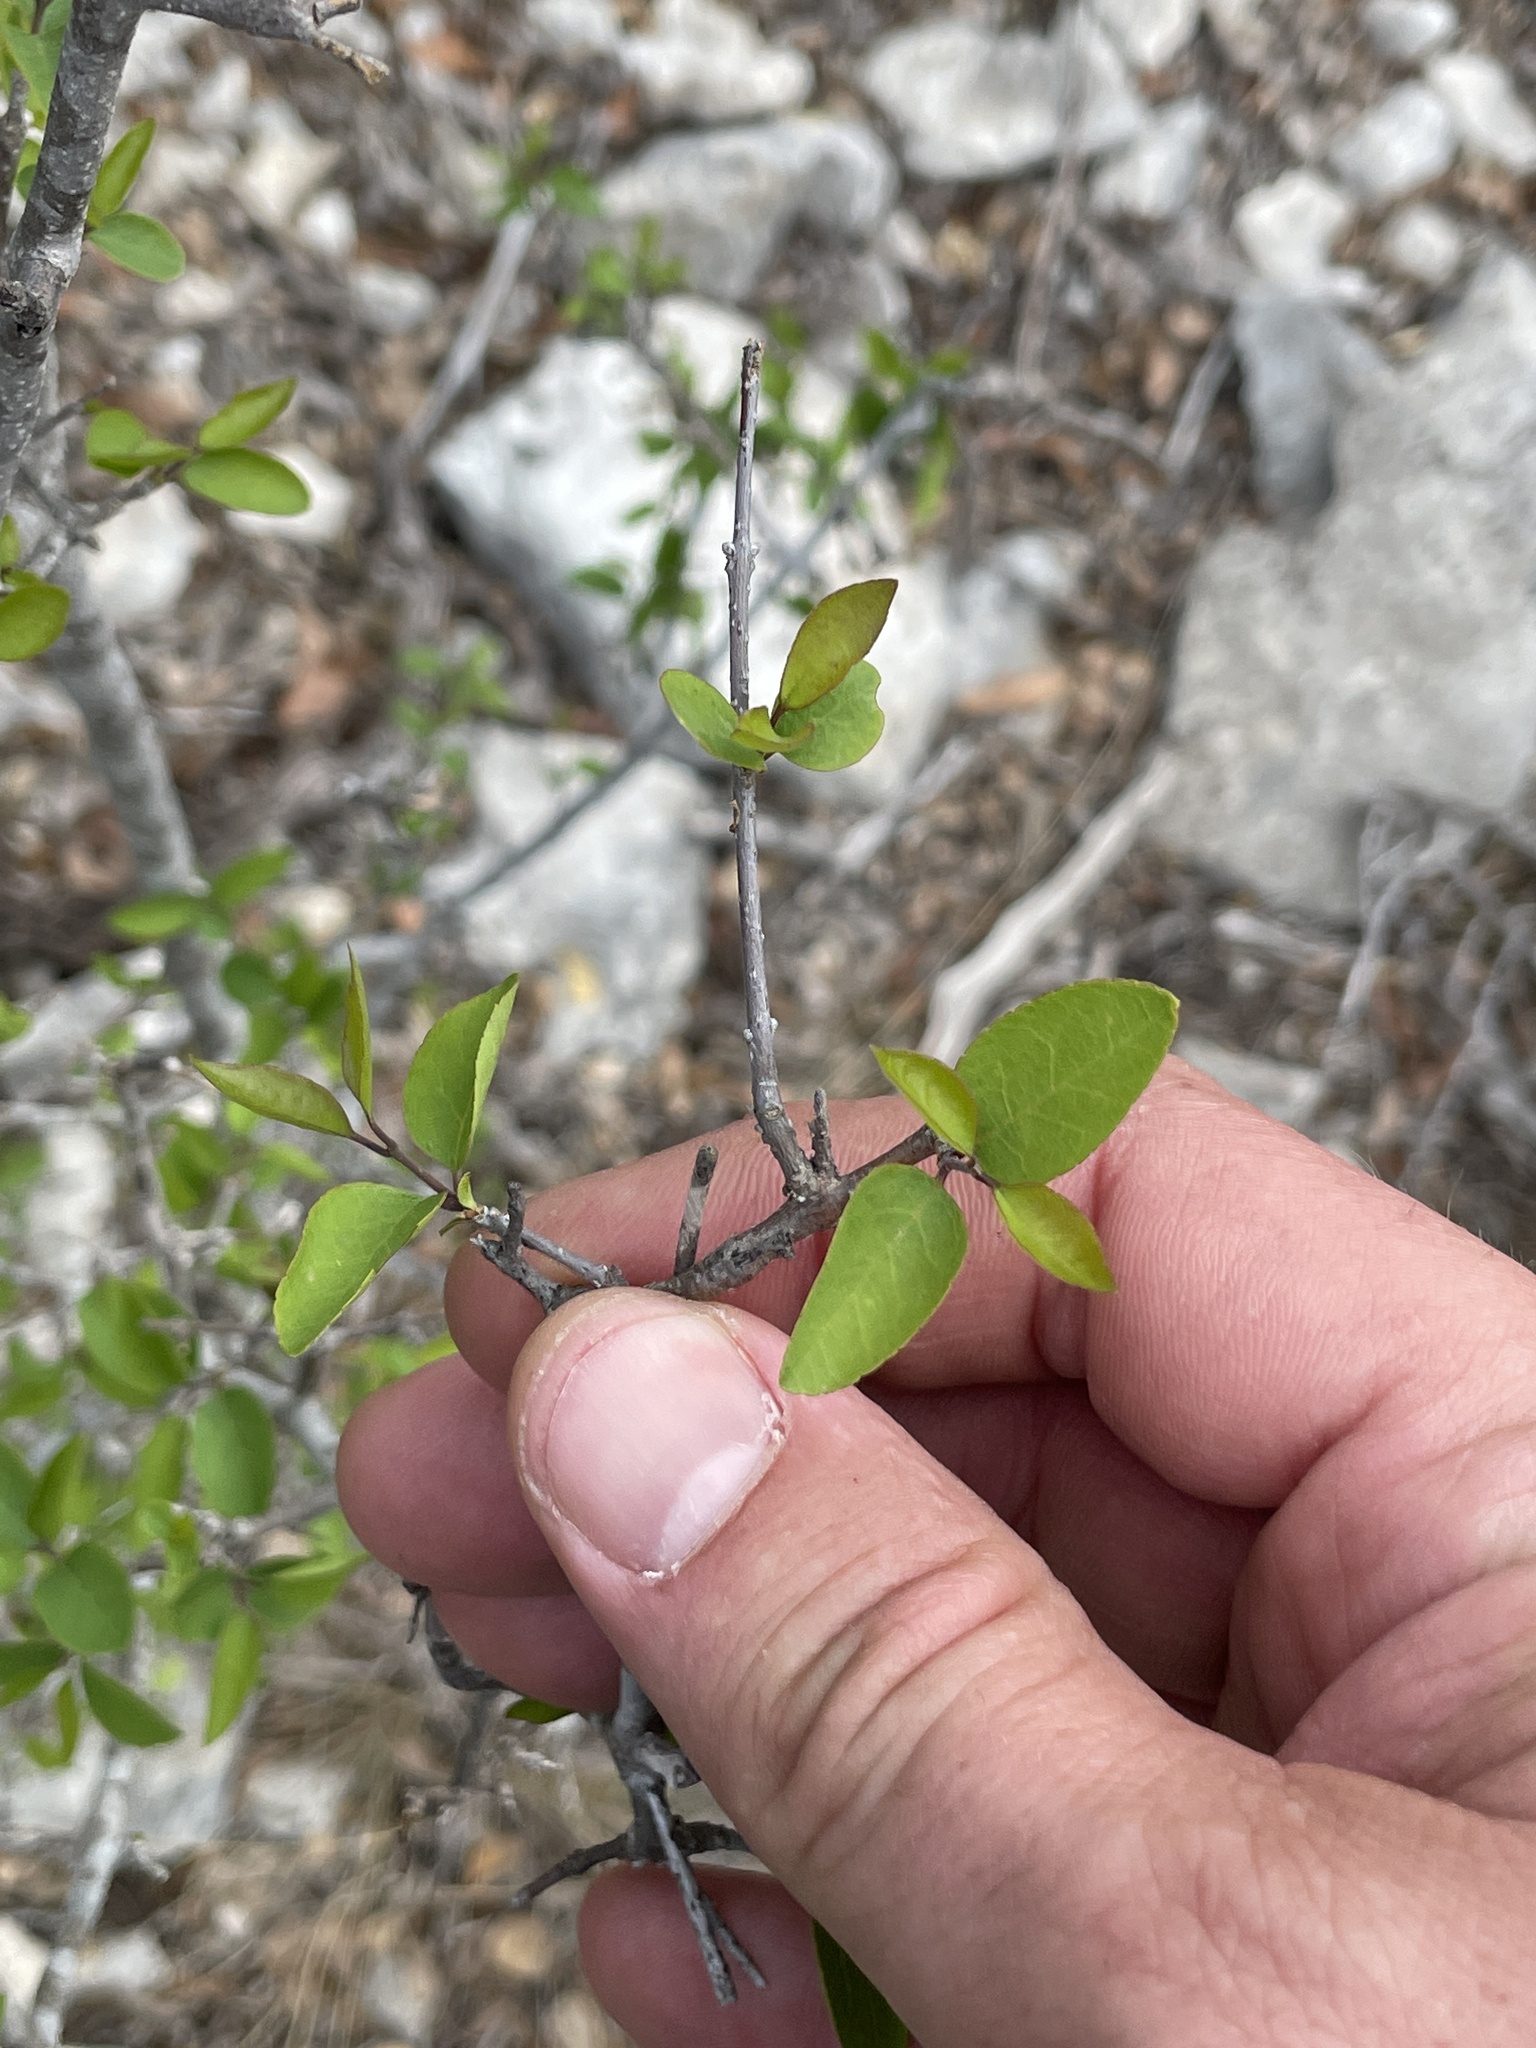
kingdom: Plantae
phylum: Tracheophyta
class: Magnoliopsida
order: Lamiales
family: Oleaceae
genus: Forestiera
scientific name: Forestiera reticulata
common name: Netleaf swamp-privet
